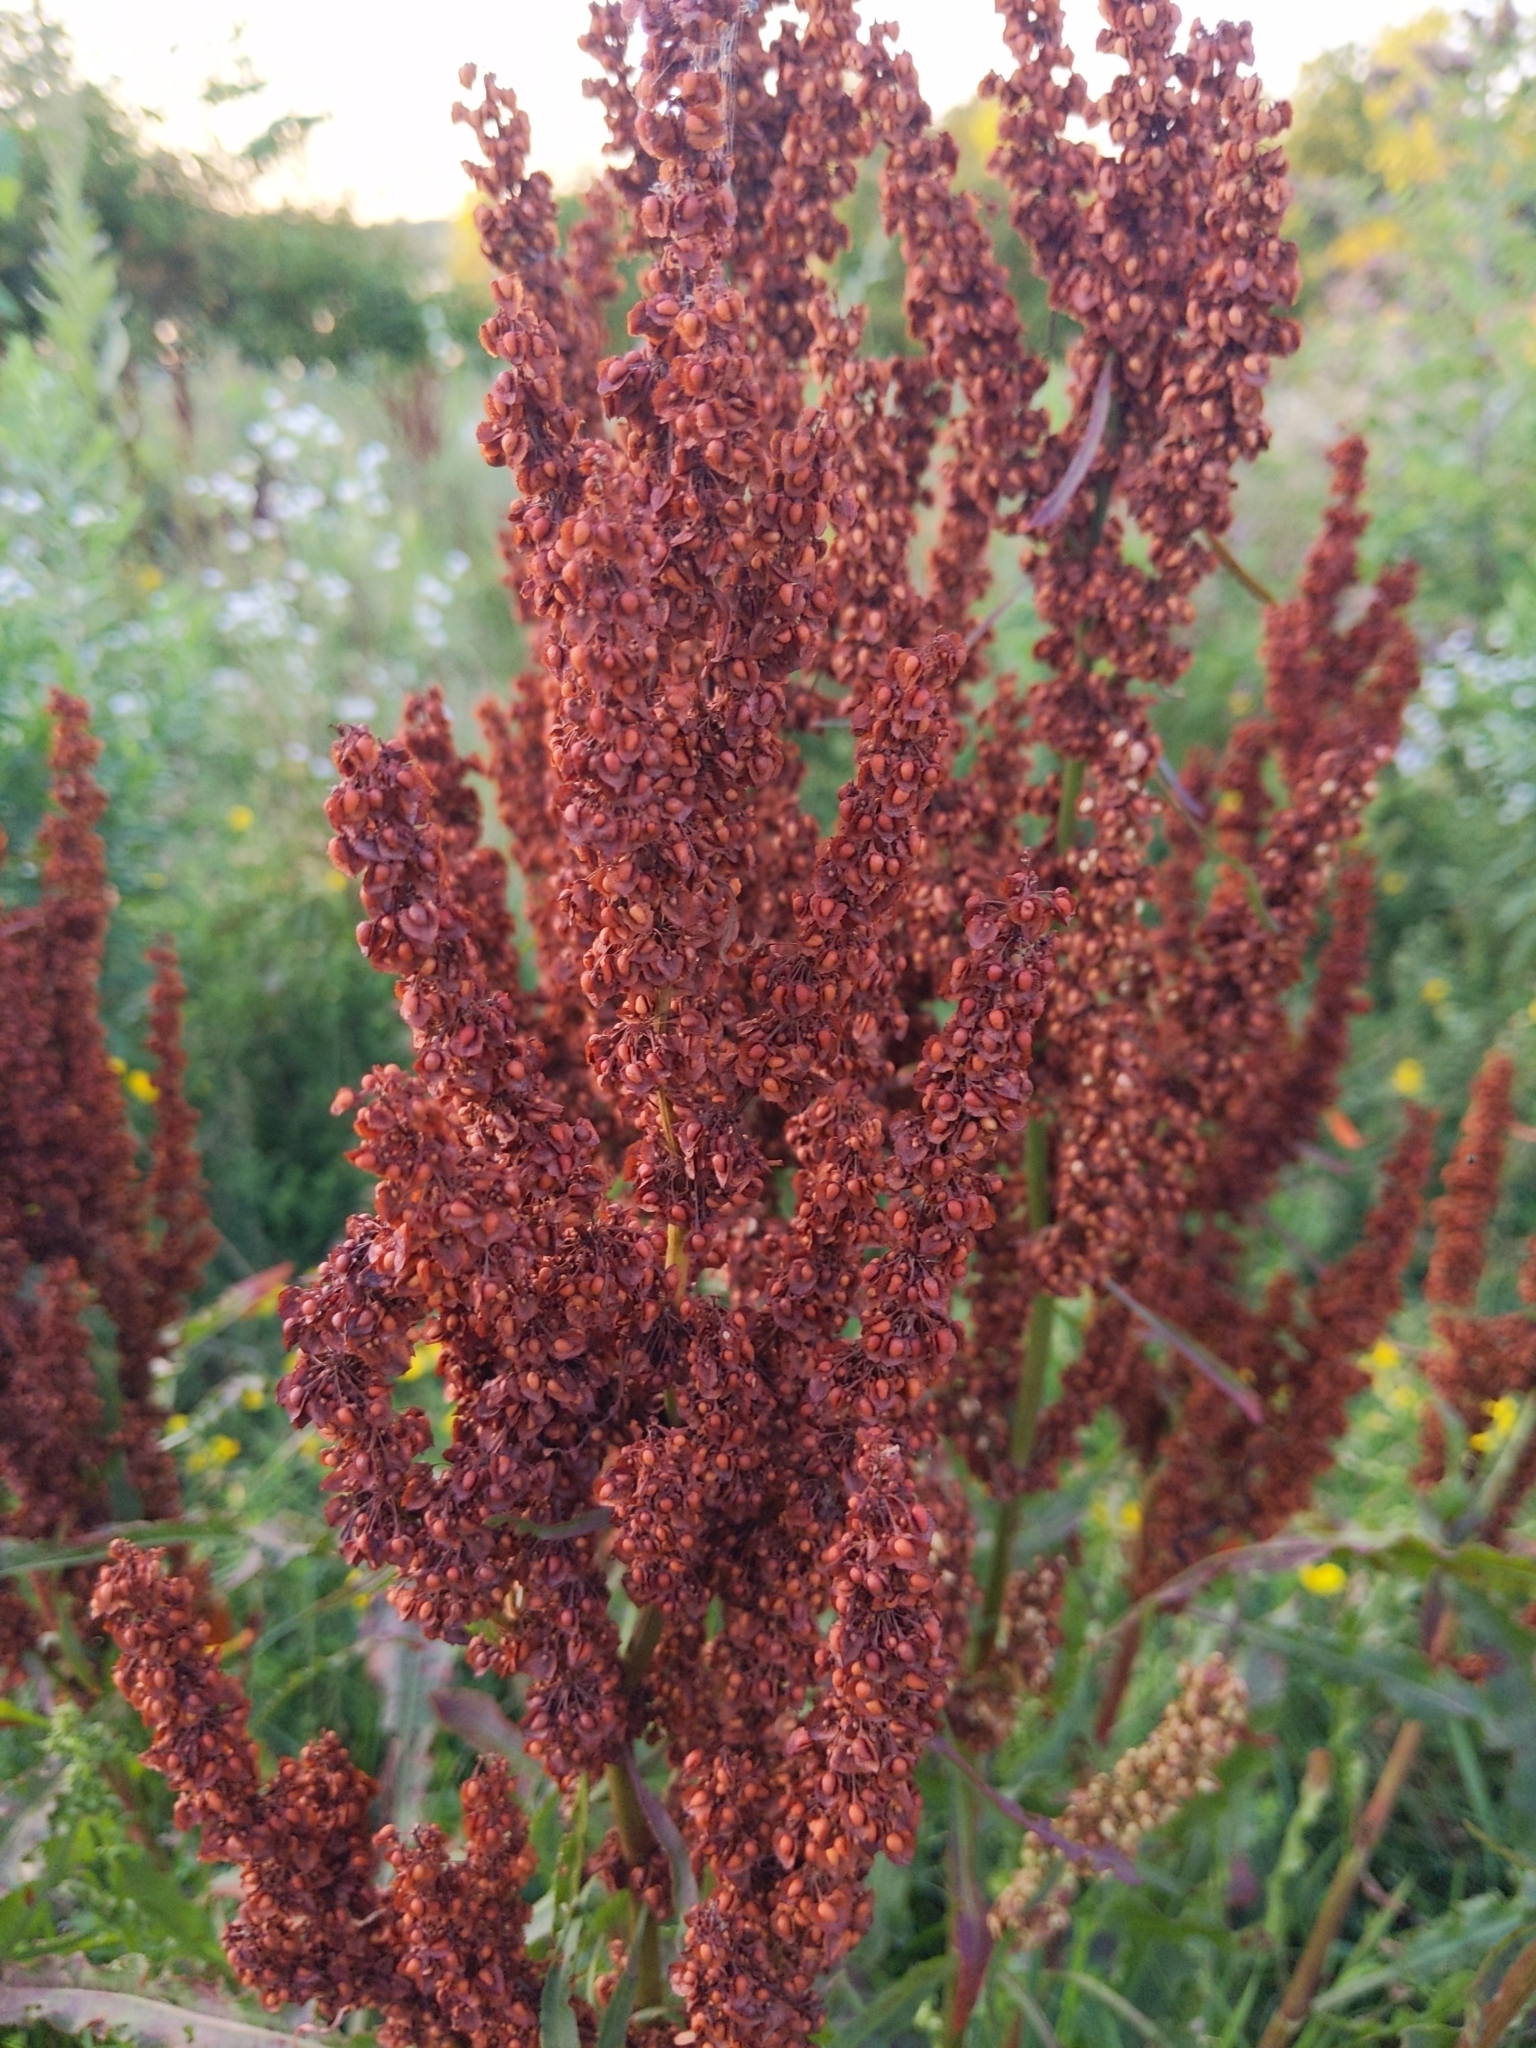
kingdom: Plantae
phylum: Tracheophyta
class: Magnoliopsida
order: Caryophyllales
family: Polygonaceae
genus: Rumex
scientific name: Rumex crispus
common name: Curled dock
